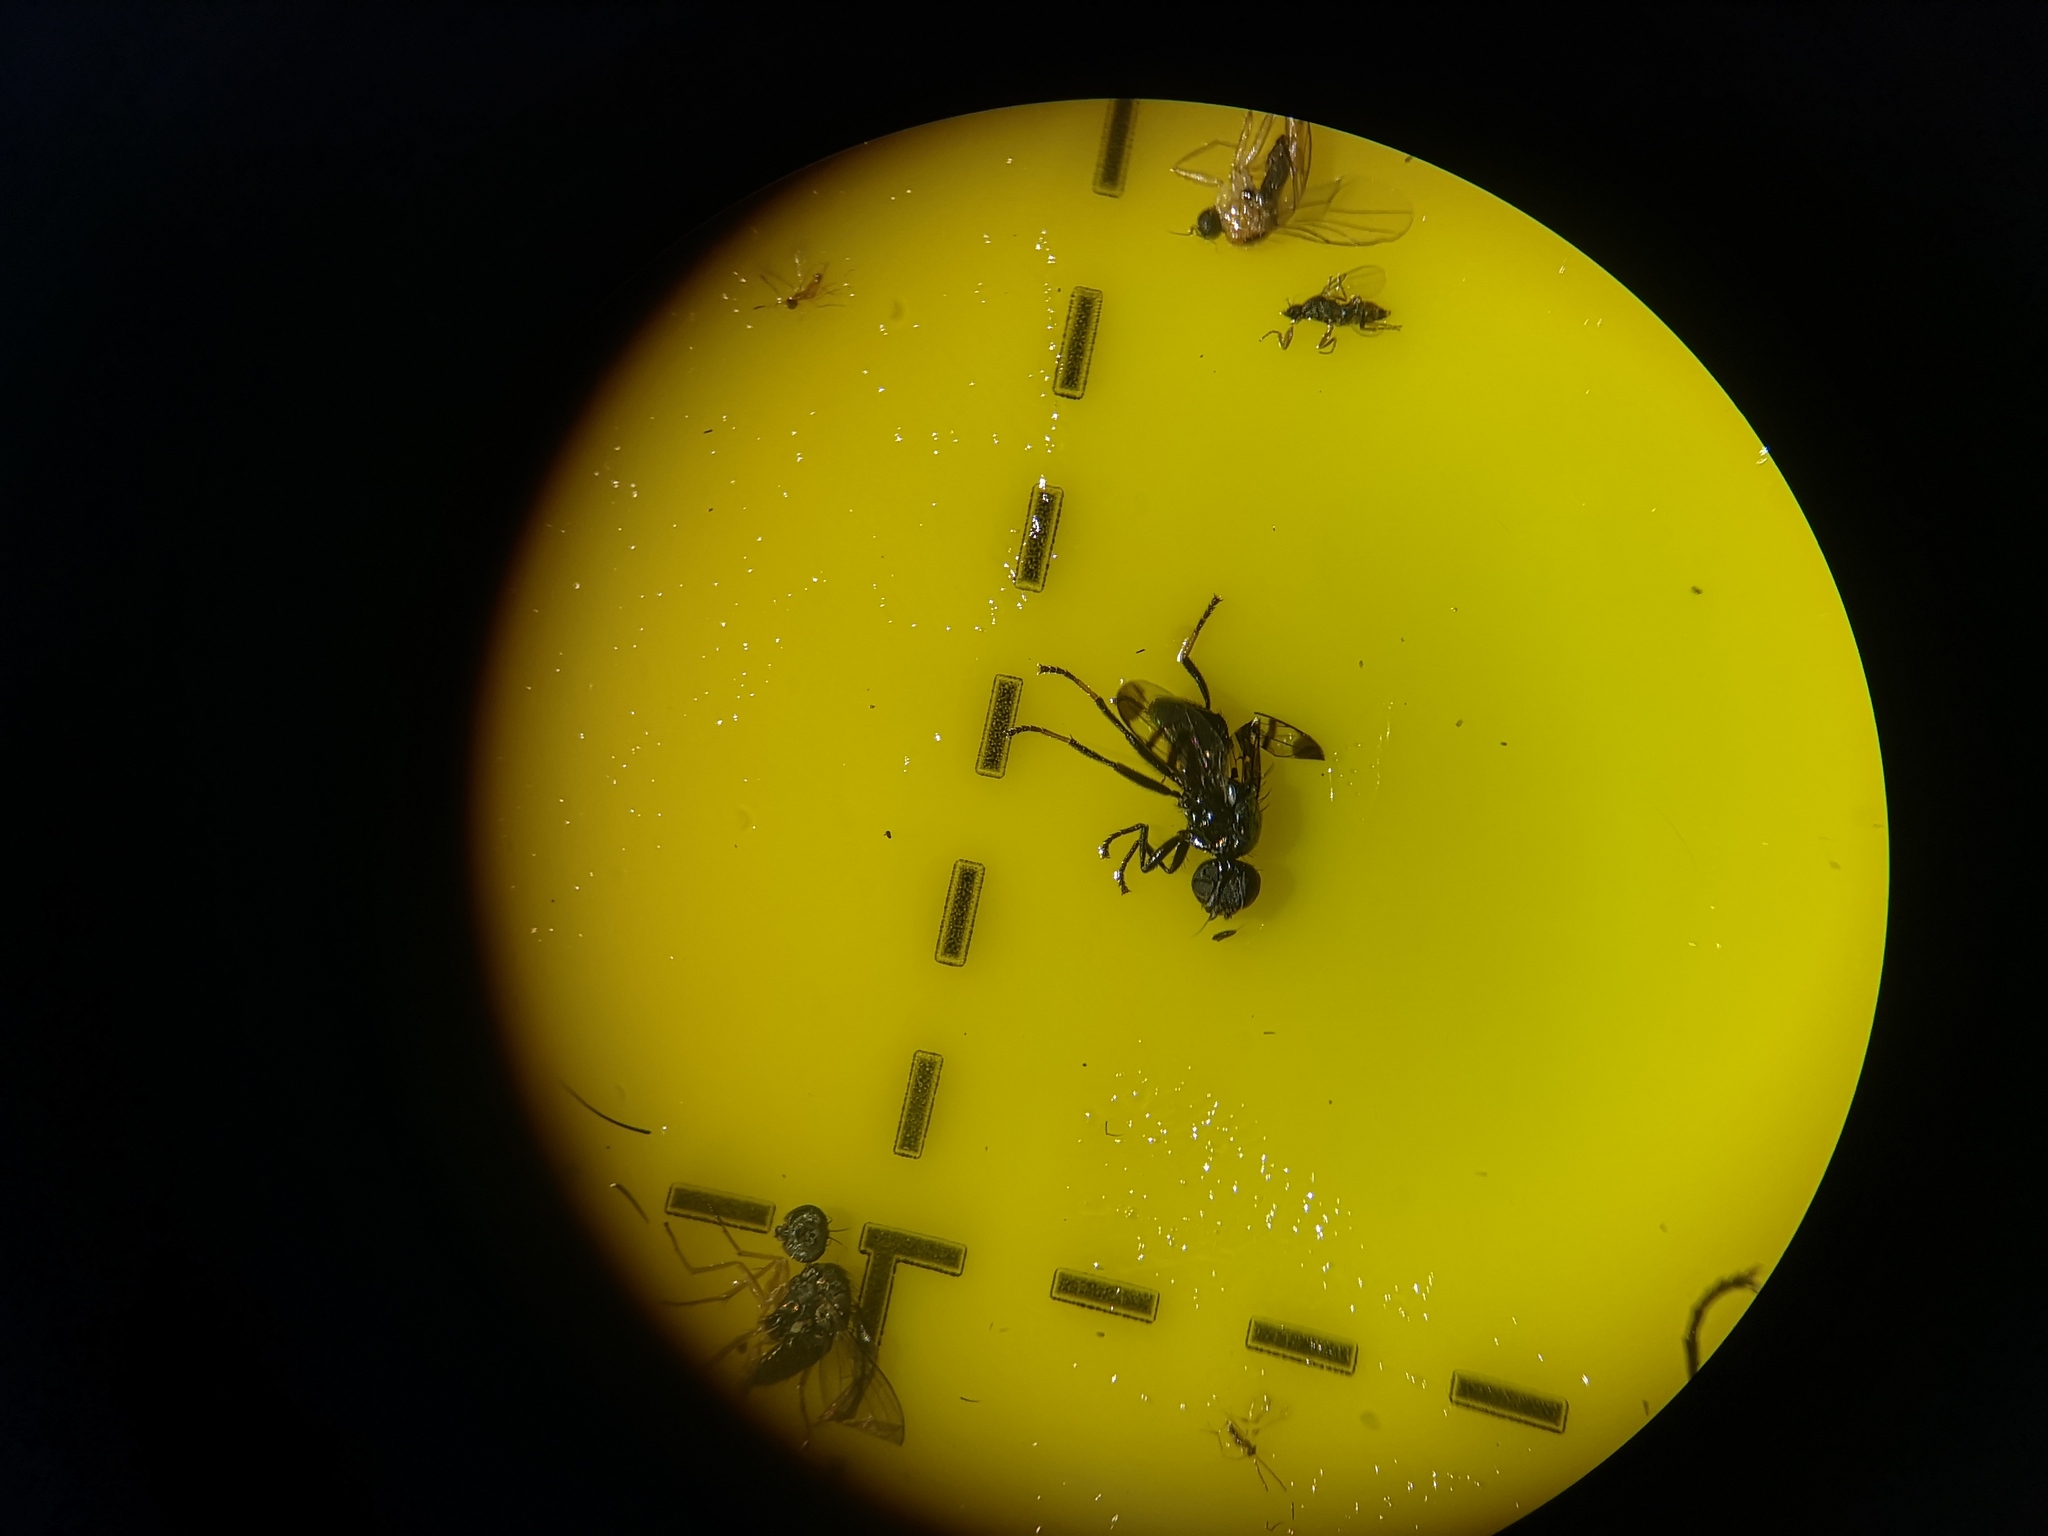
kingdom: Animalia
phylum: Arthropoda
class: Insecta
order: Diptera
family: Platystomatidae
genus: Rivellia
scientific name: Rivellia syngenesiae
